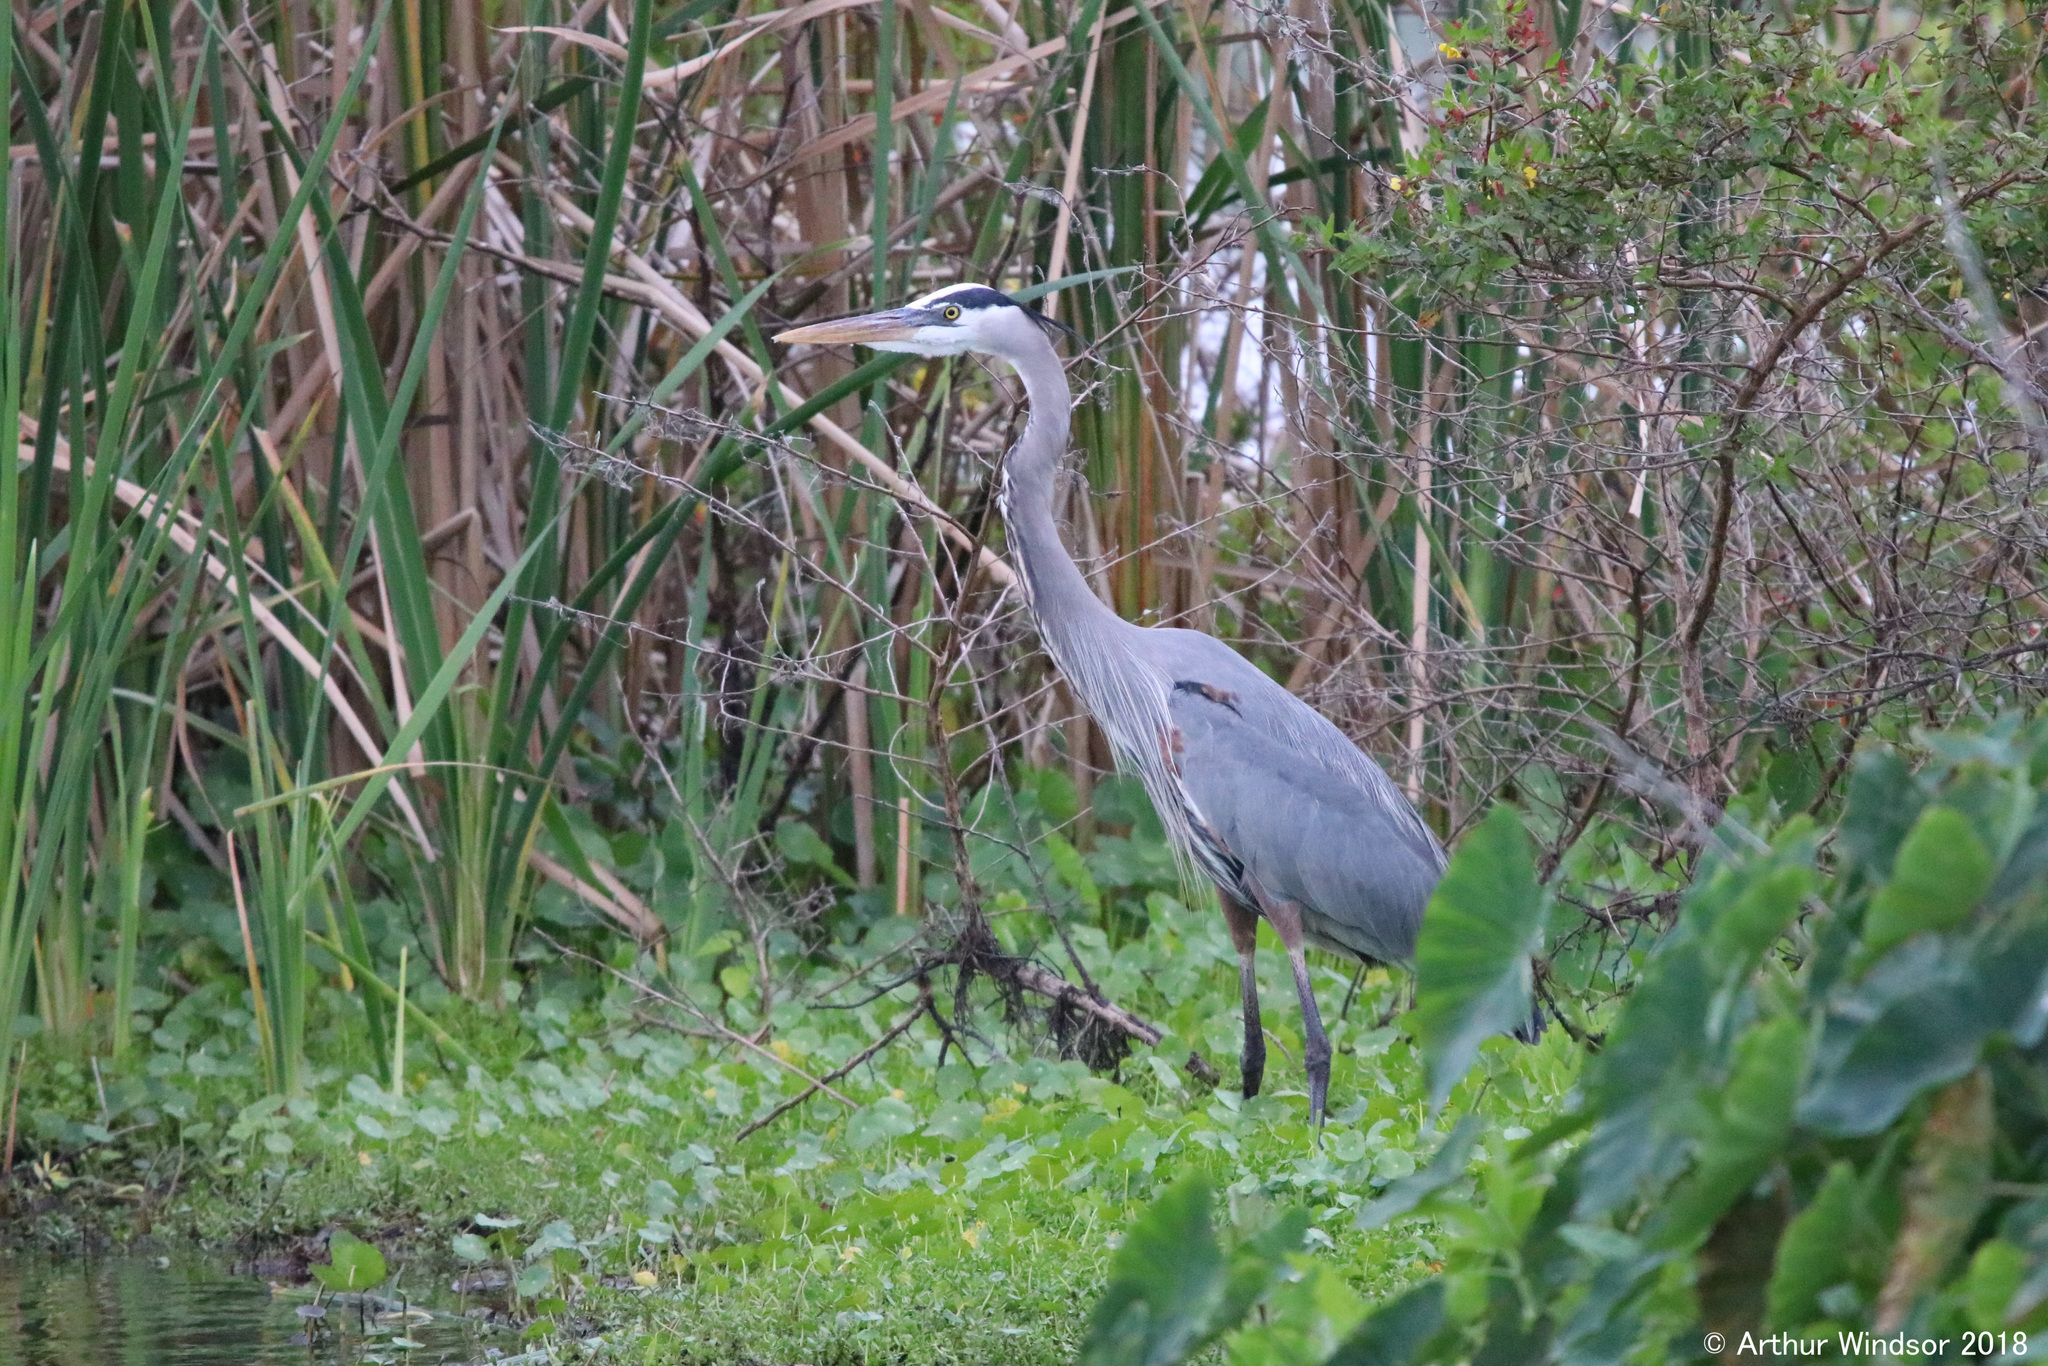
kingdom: Animalia
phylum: Chordata
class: Aves
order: Pelecaniformes
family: Ardeidae
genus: Ardea
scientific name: Ardea herodias
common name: Great blue heron
